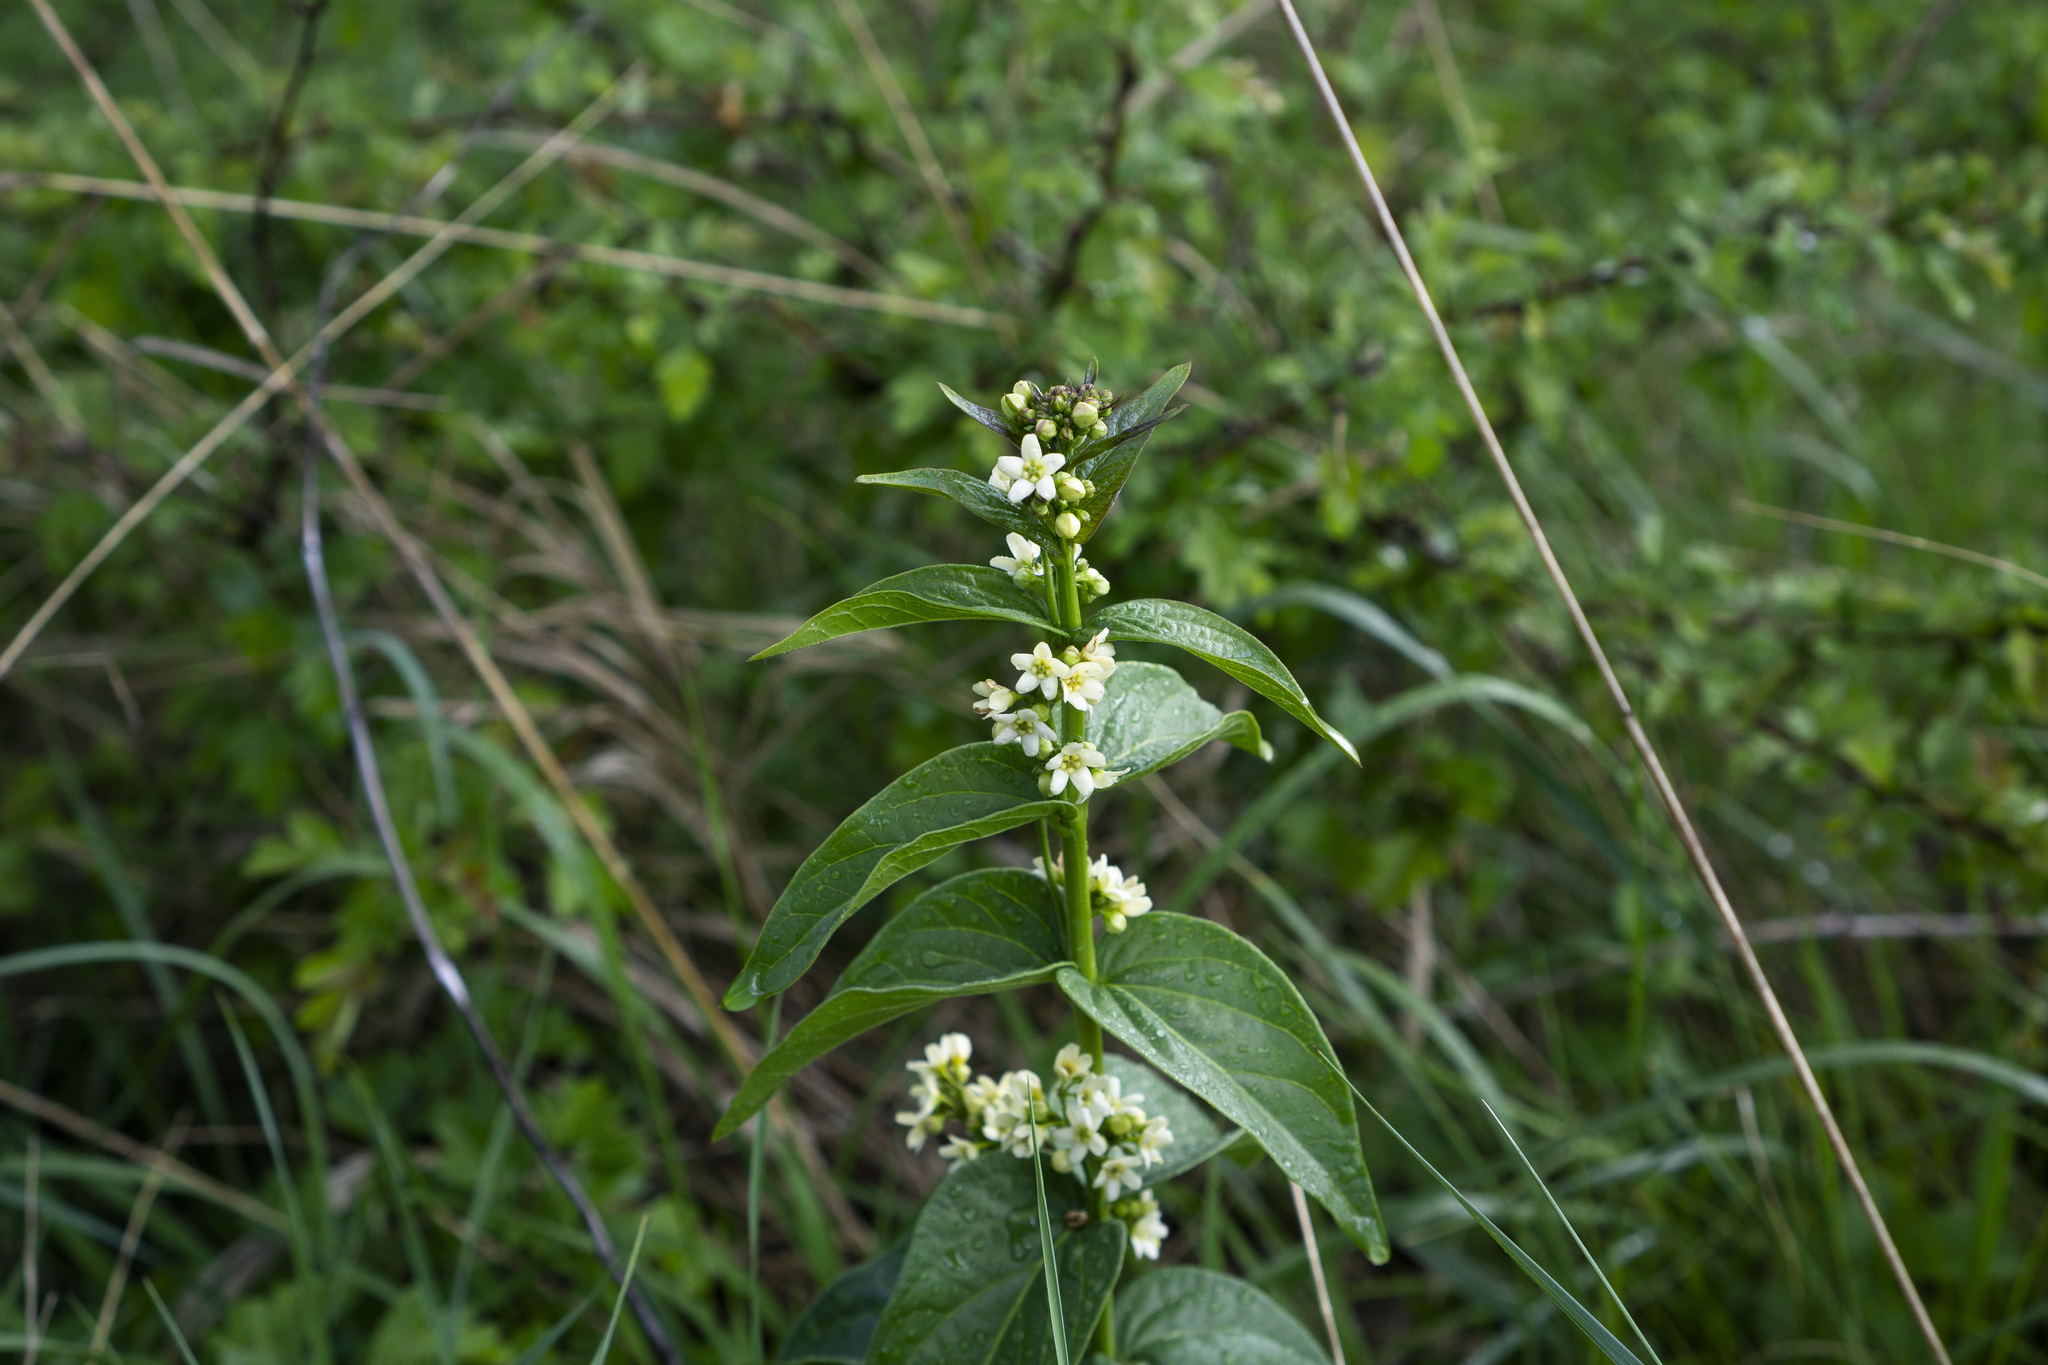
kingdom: Plantae
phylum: Tracheophyta
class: Magnoliopsida
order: Gentianales
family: Apocynaceae
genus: Vincetoxicum
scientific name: Vincetoxicum hirundinaria
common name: White swallowwort
